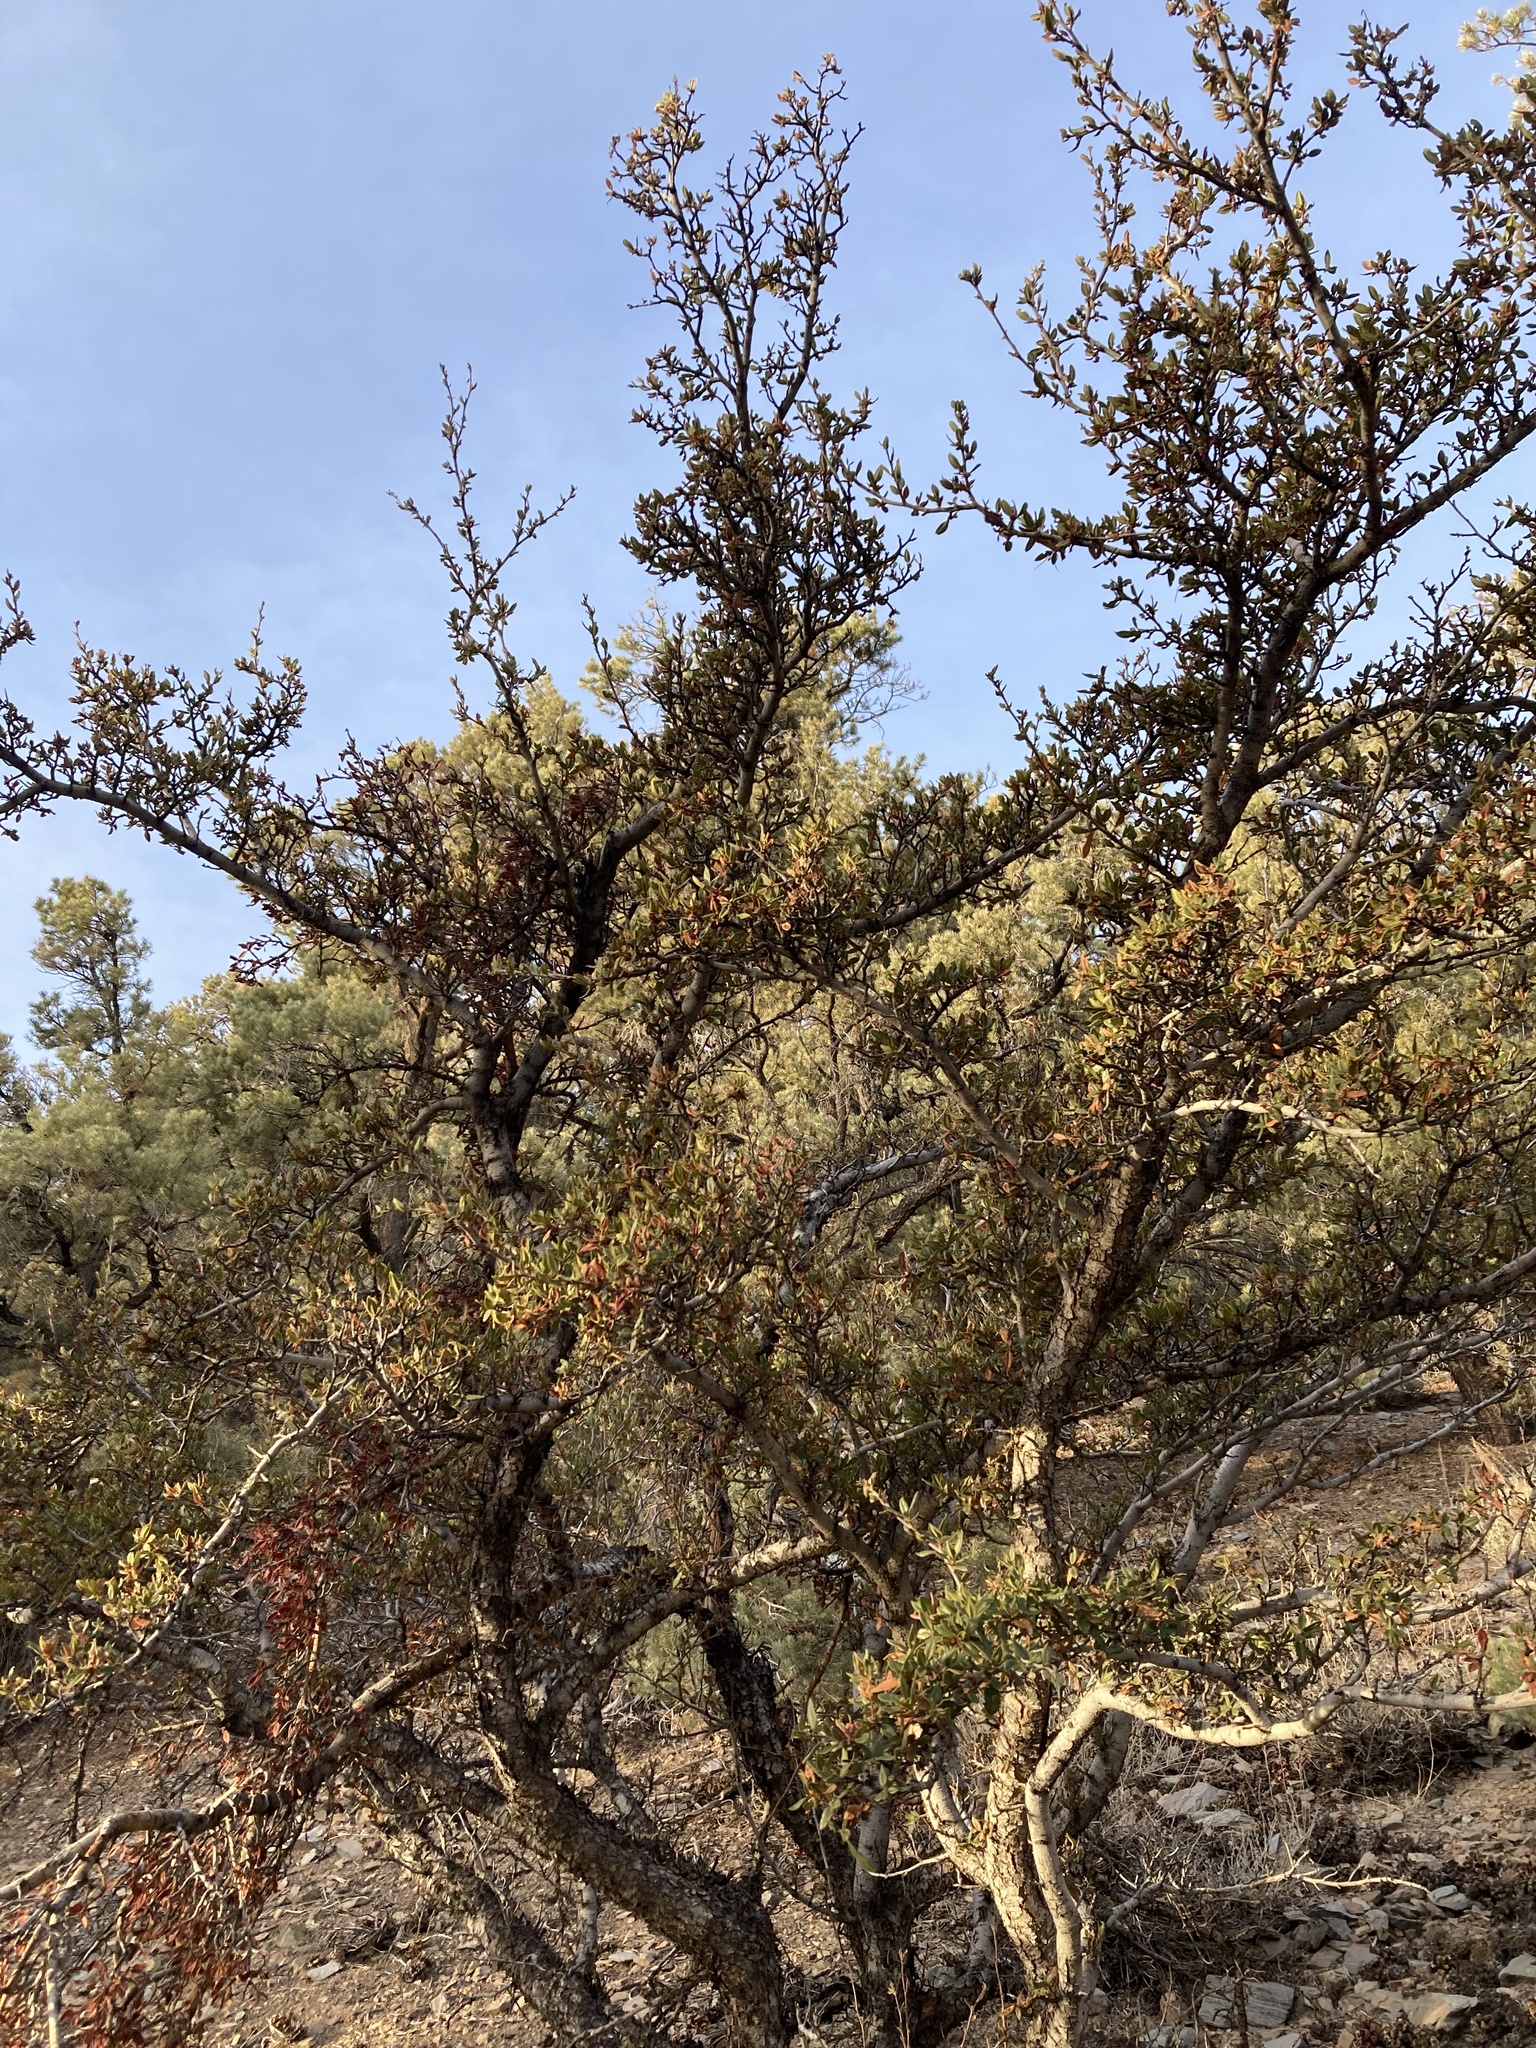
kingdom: Plantae
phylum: Tracheophyta
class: Magnoliopsida
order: Rosales
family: Rosaceae
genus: Cercocarpus
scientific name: Cercocarpus ledifolius
